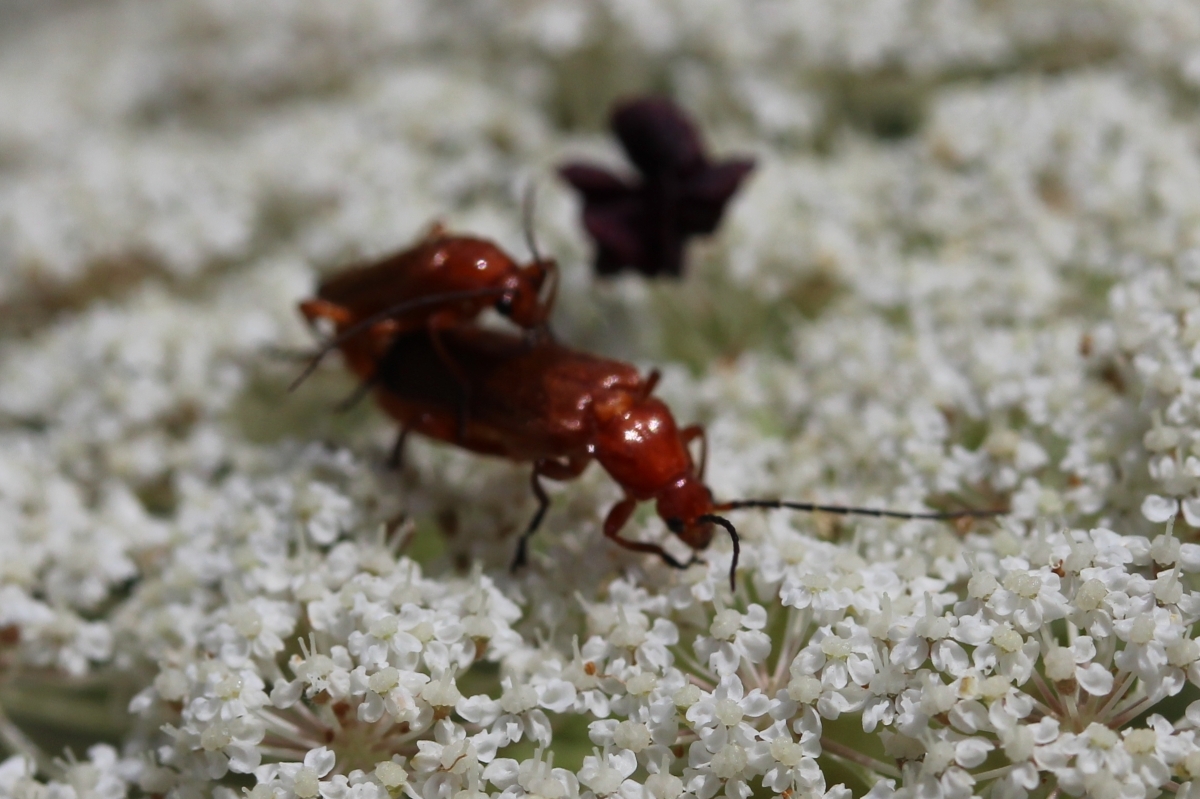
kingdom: Animalia
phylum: Arthropoda
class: Insecta
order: Coleoptera
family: Cantharidae
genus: Rhagonycha
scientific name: Rhagonycha fulva
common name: Common red soldier beetle
